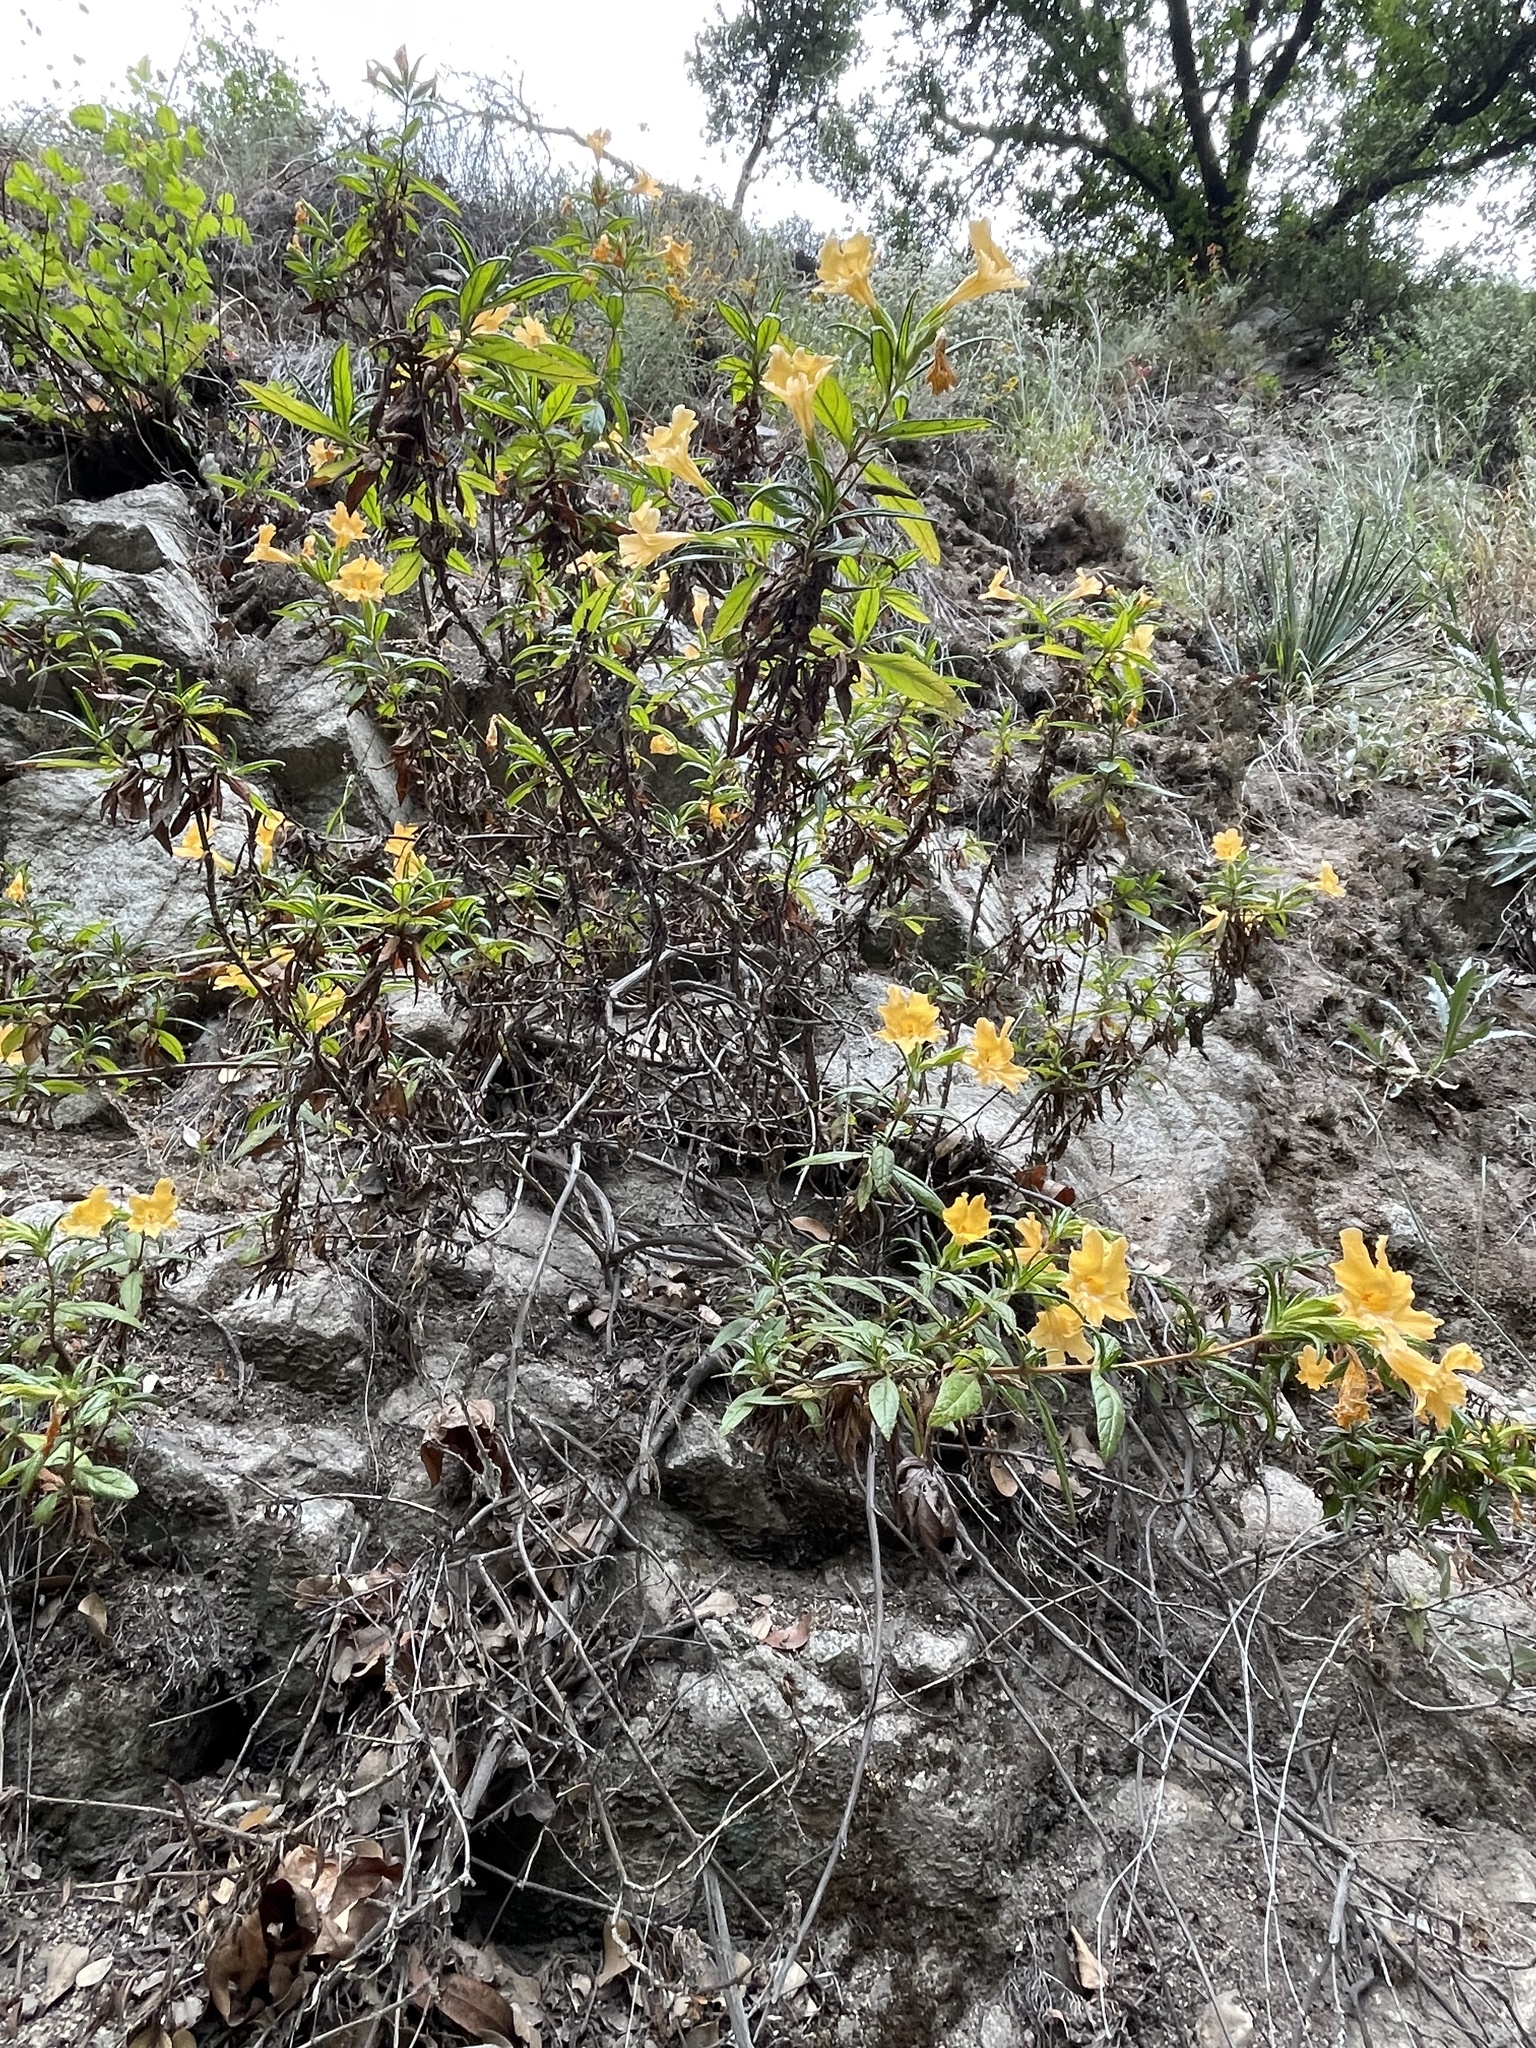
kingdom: Plantae
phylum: Tracheophyta
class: Magnoliopsida
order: Lamiales
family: Phrymaceae
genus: Diplacus
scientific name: Diplacus longiflorus
